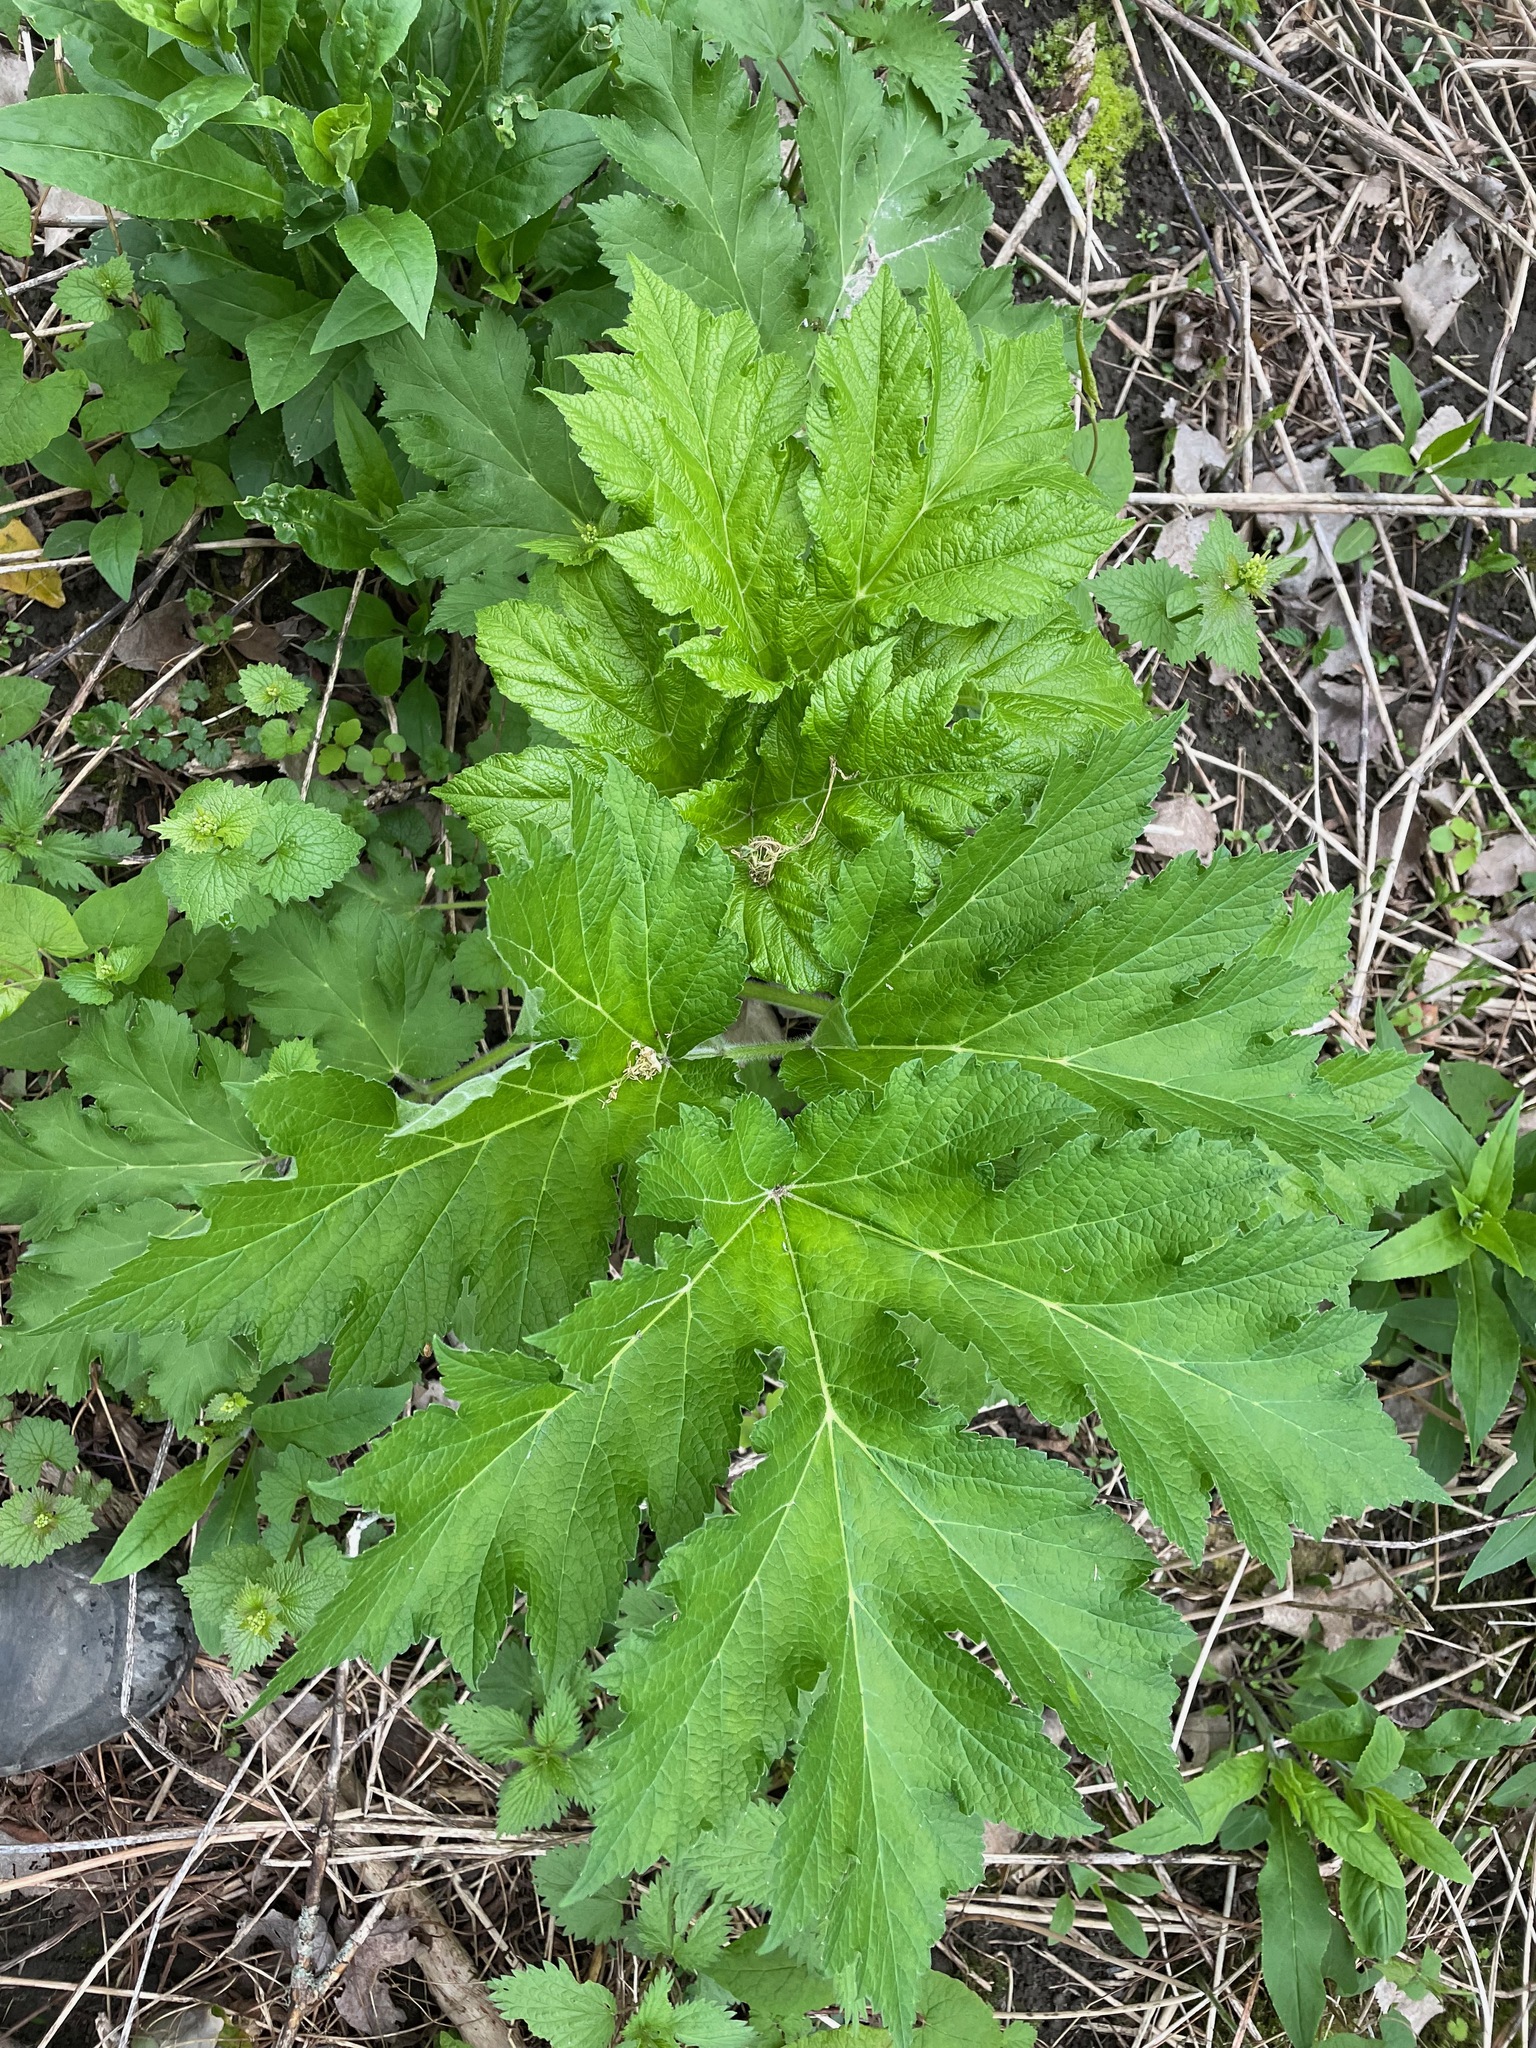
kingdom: Plantae
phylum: Tracheophyta
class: Magnoliopsida
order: Apiales
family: Apiaceae
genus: Heracleum
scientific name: Heracleum maximum
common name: American cow parsnip
